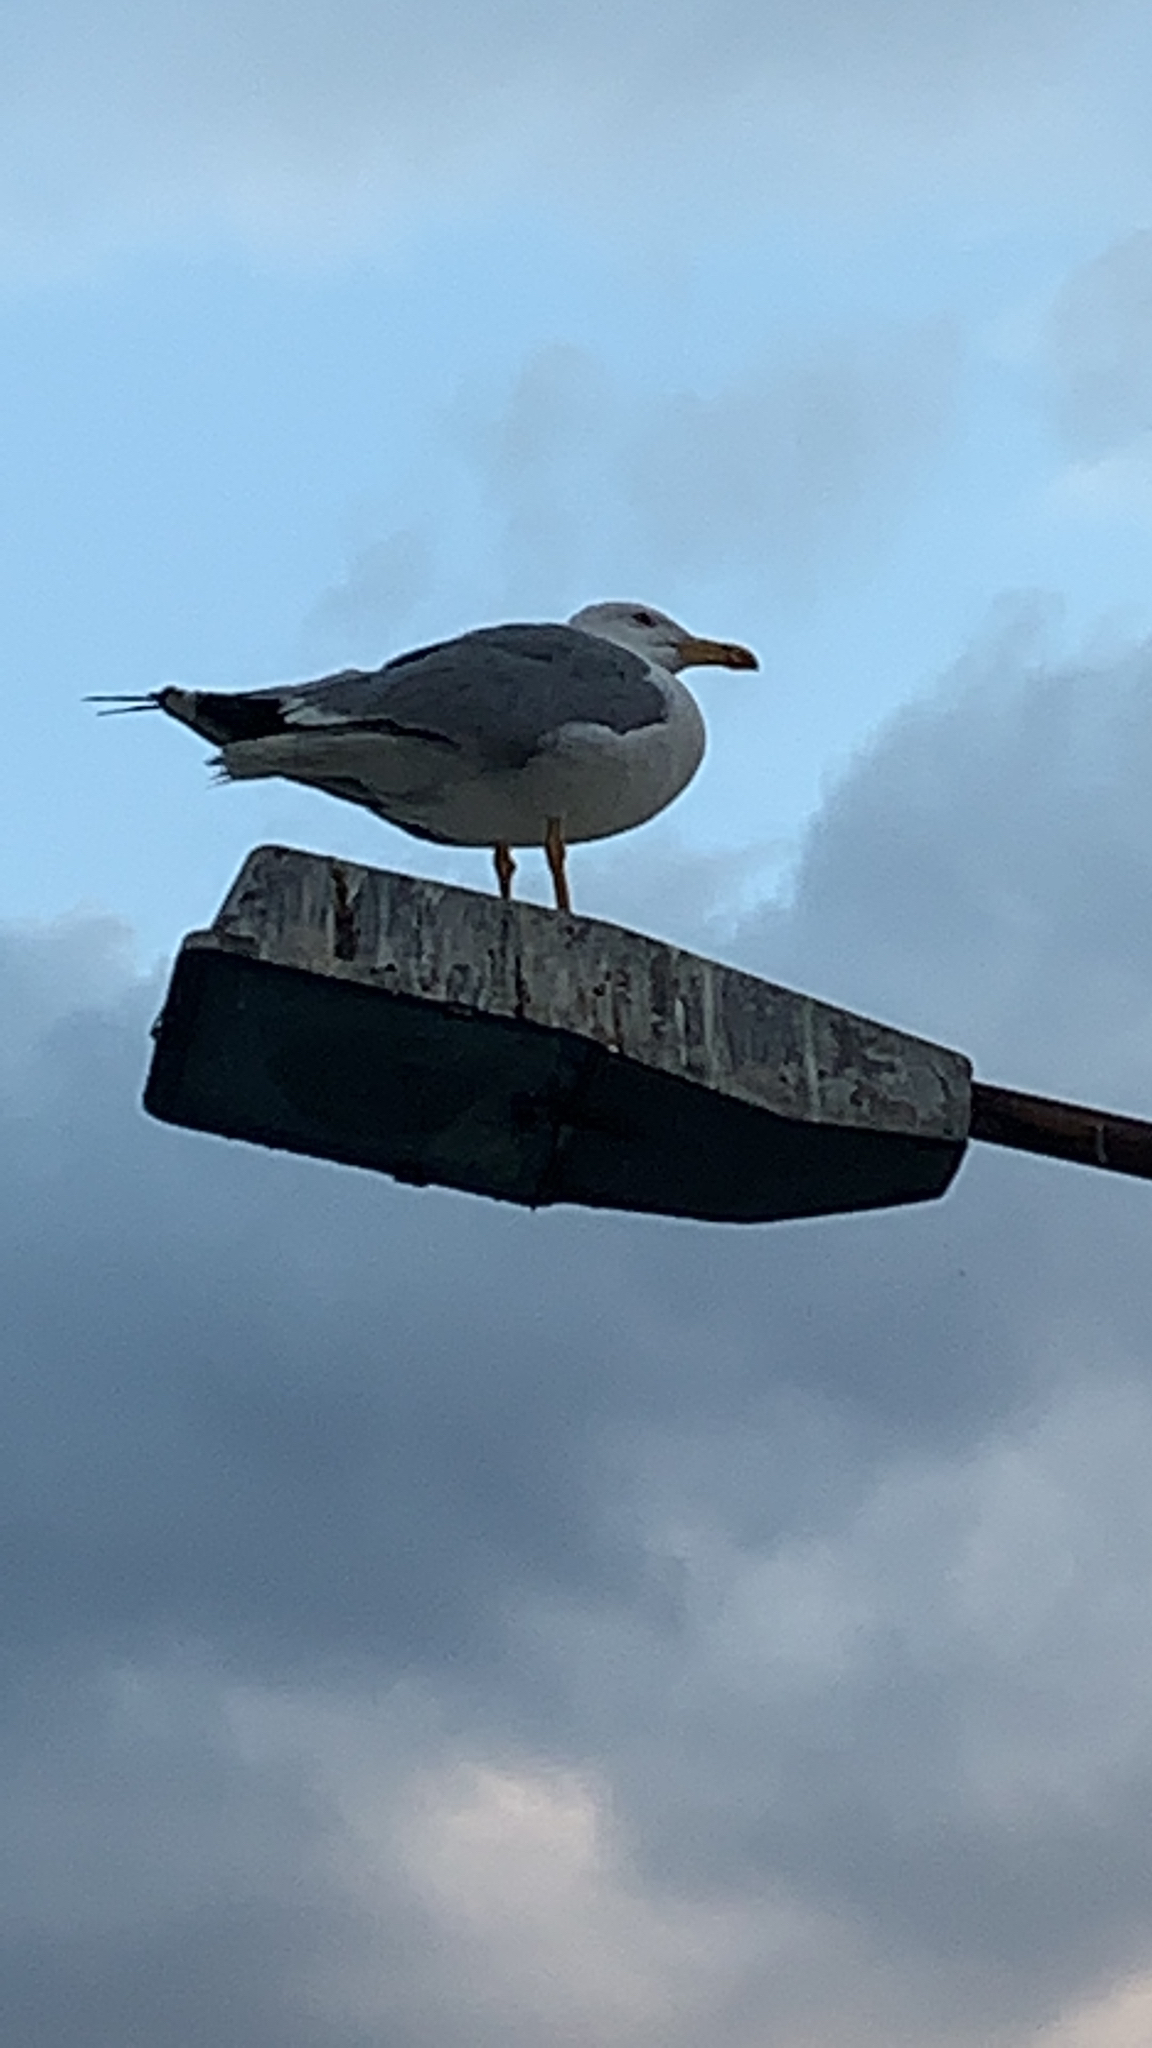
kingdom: Animalia
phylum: Chordata
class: Aves
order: Charadriiformes
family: Laridae
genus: Larus
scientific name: Larus michahellis
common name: Yellow-legged gull
